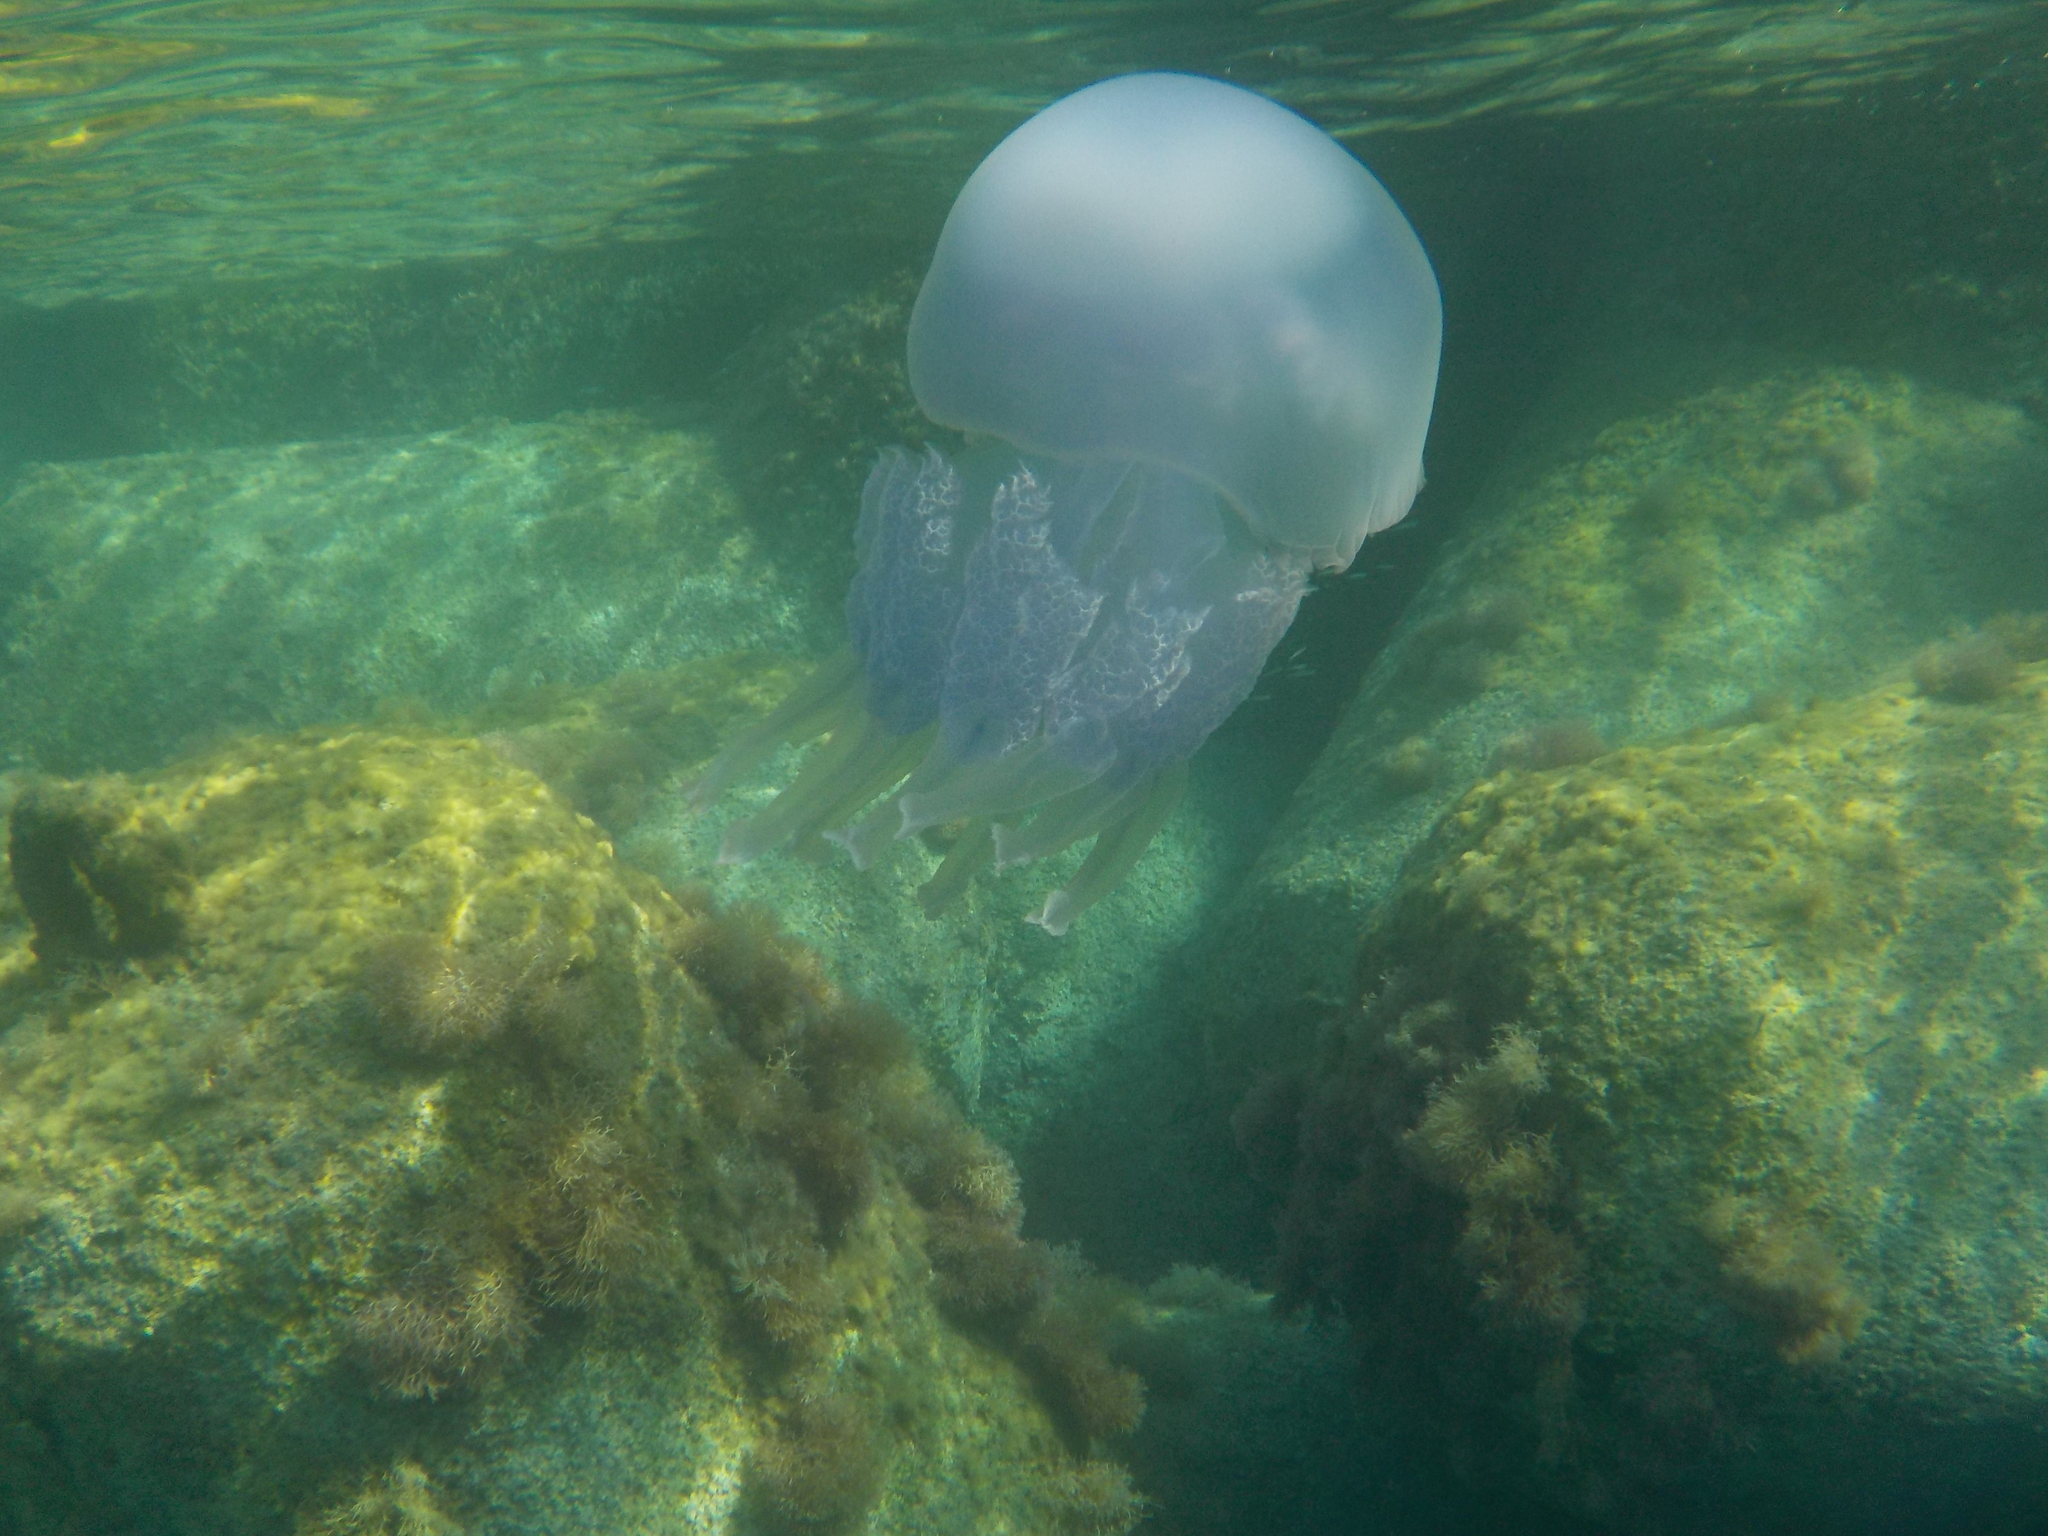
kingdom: Animalia
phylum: Cnidaria
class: Scyphozoa
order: Rhizostomeae
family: Rhizostomatidae
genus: Rhizostoma
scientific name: Rhizostoma pulmo
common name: Barrel jellyfish
